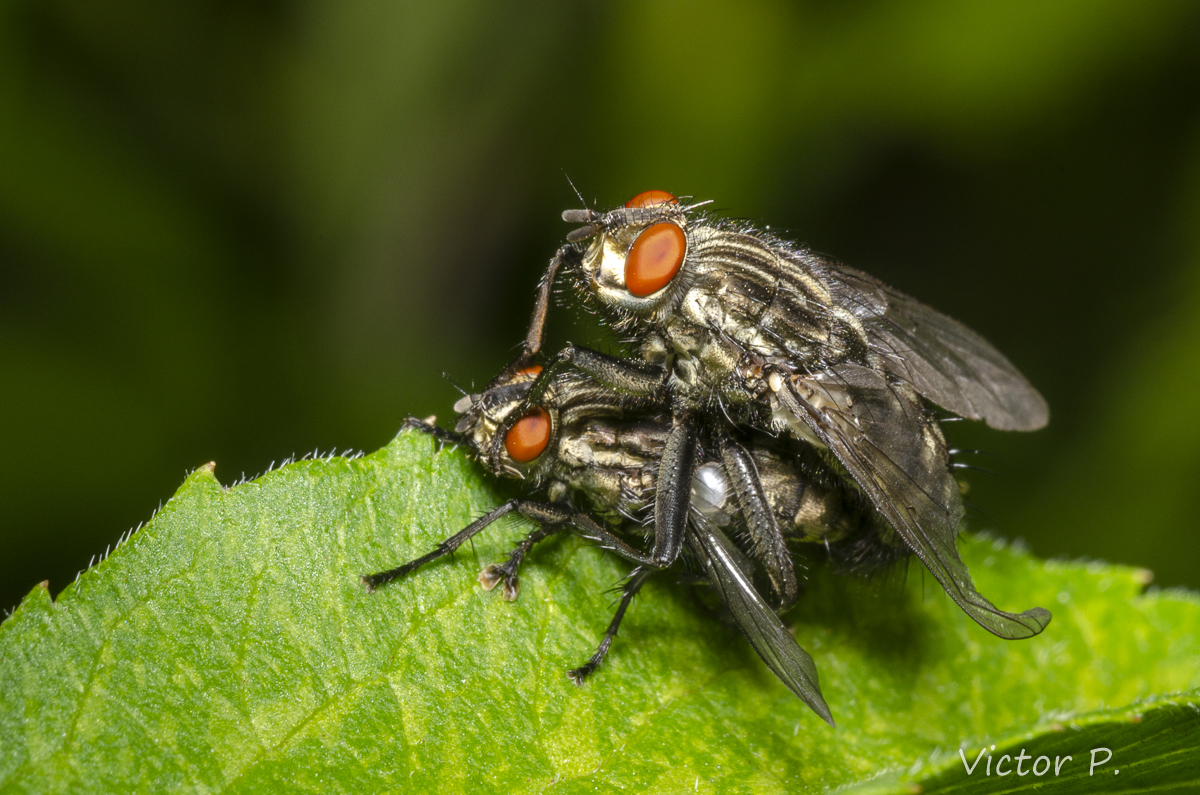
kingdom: Animalia
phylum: Arthropoda
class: Insecta
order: Diptera
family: Sarcophagidae
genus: Sarcophaga
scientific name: Sarcophaga
